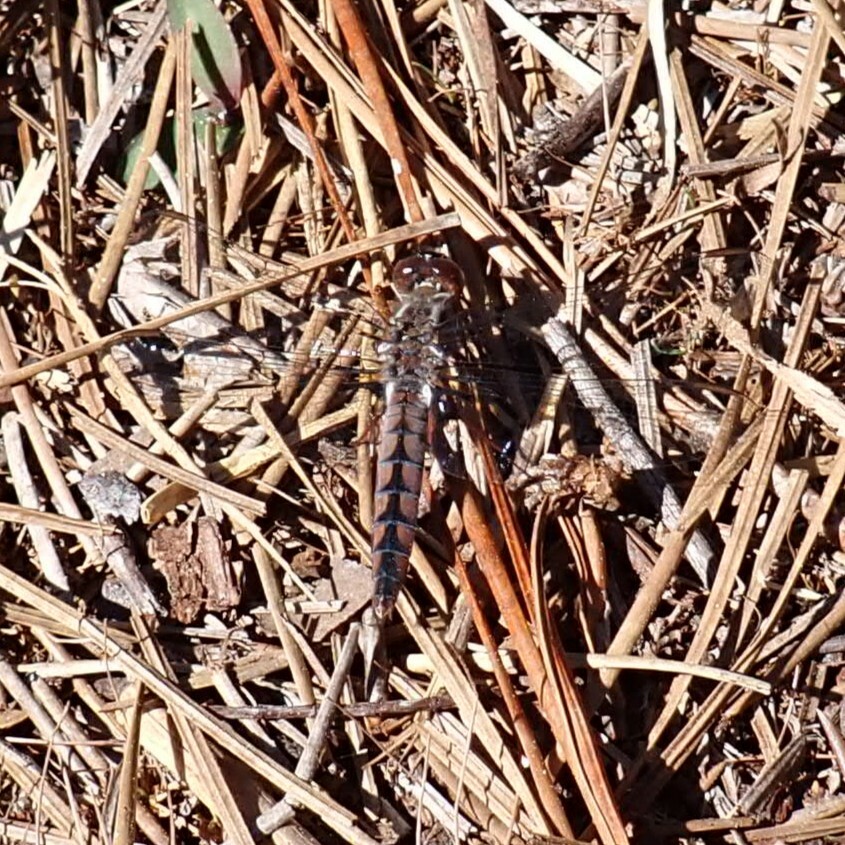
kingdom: Animalia
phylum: Arthropoda
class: Insecta
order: Odonata
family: Libellulidae
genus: Ladona
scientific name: Ladona deplanata
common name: Blue corporal
